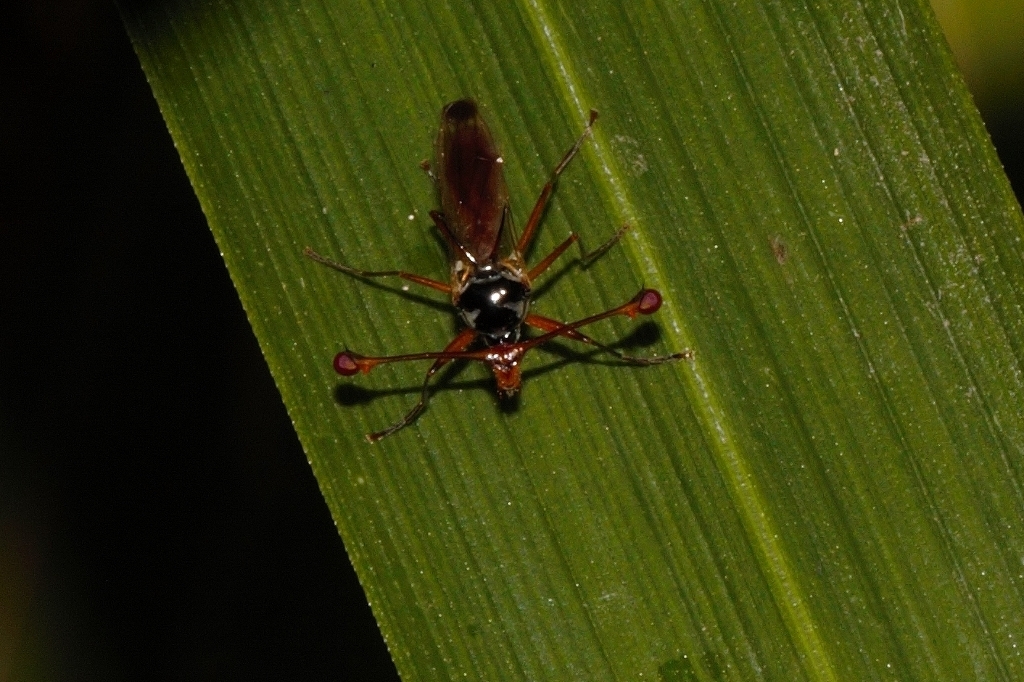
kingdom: Animalia
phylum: Arthropoda
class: Insecta
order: Diptera
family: Diopsidae
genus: Diopsis
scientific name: Diopsis
